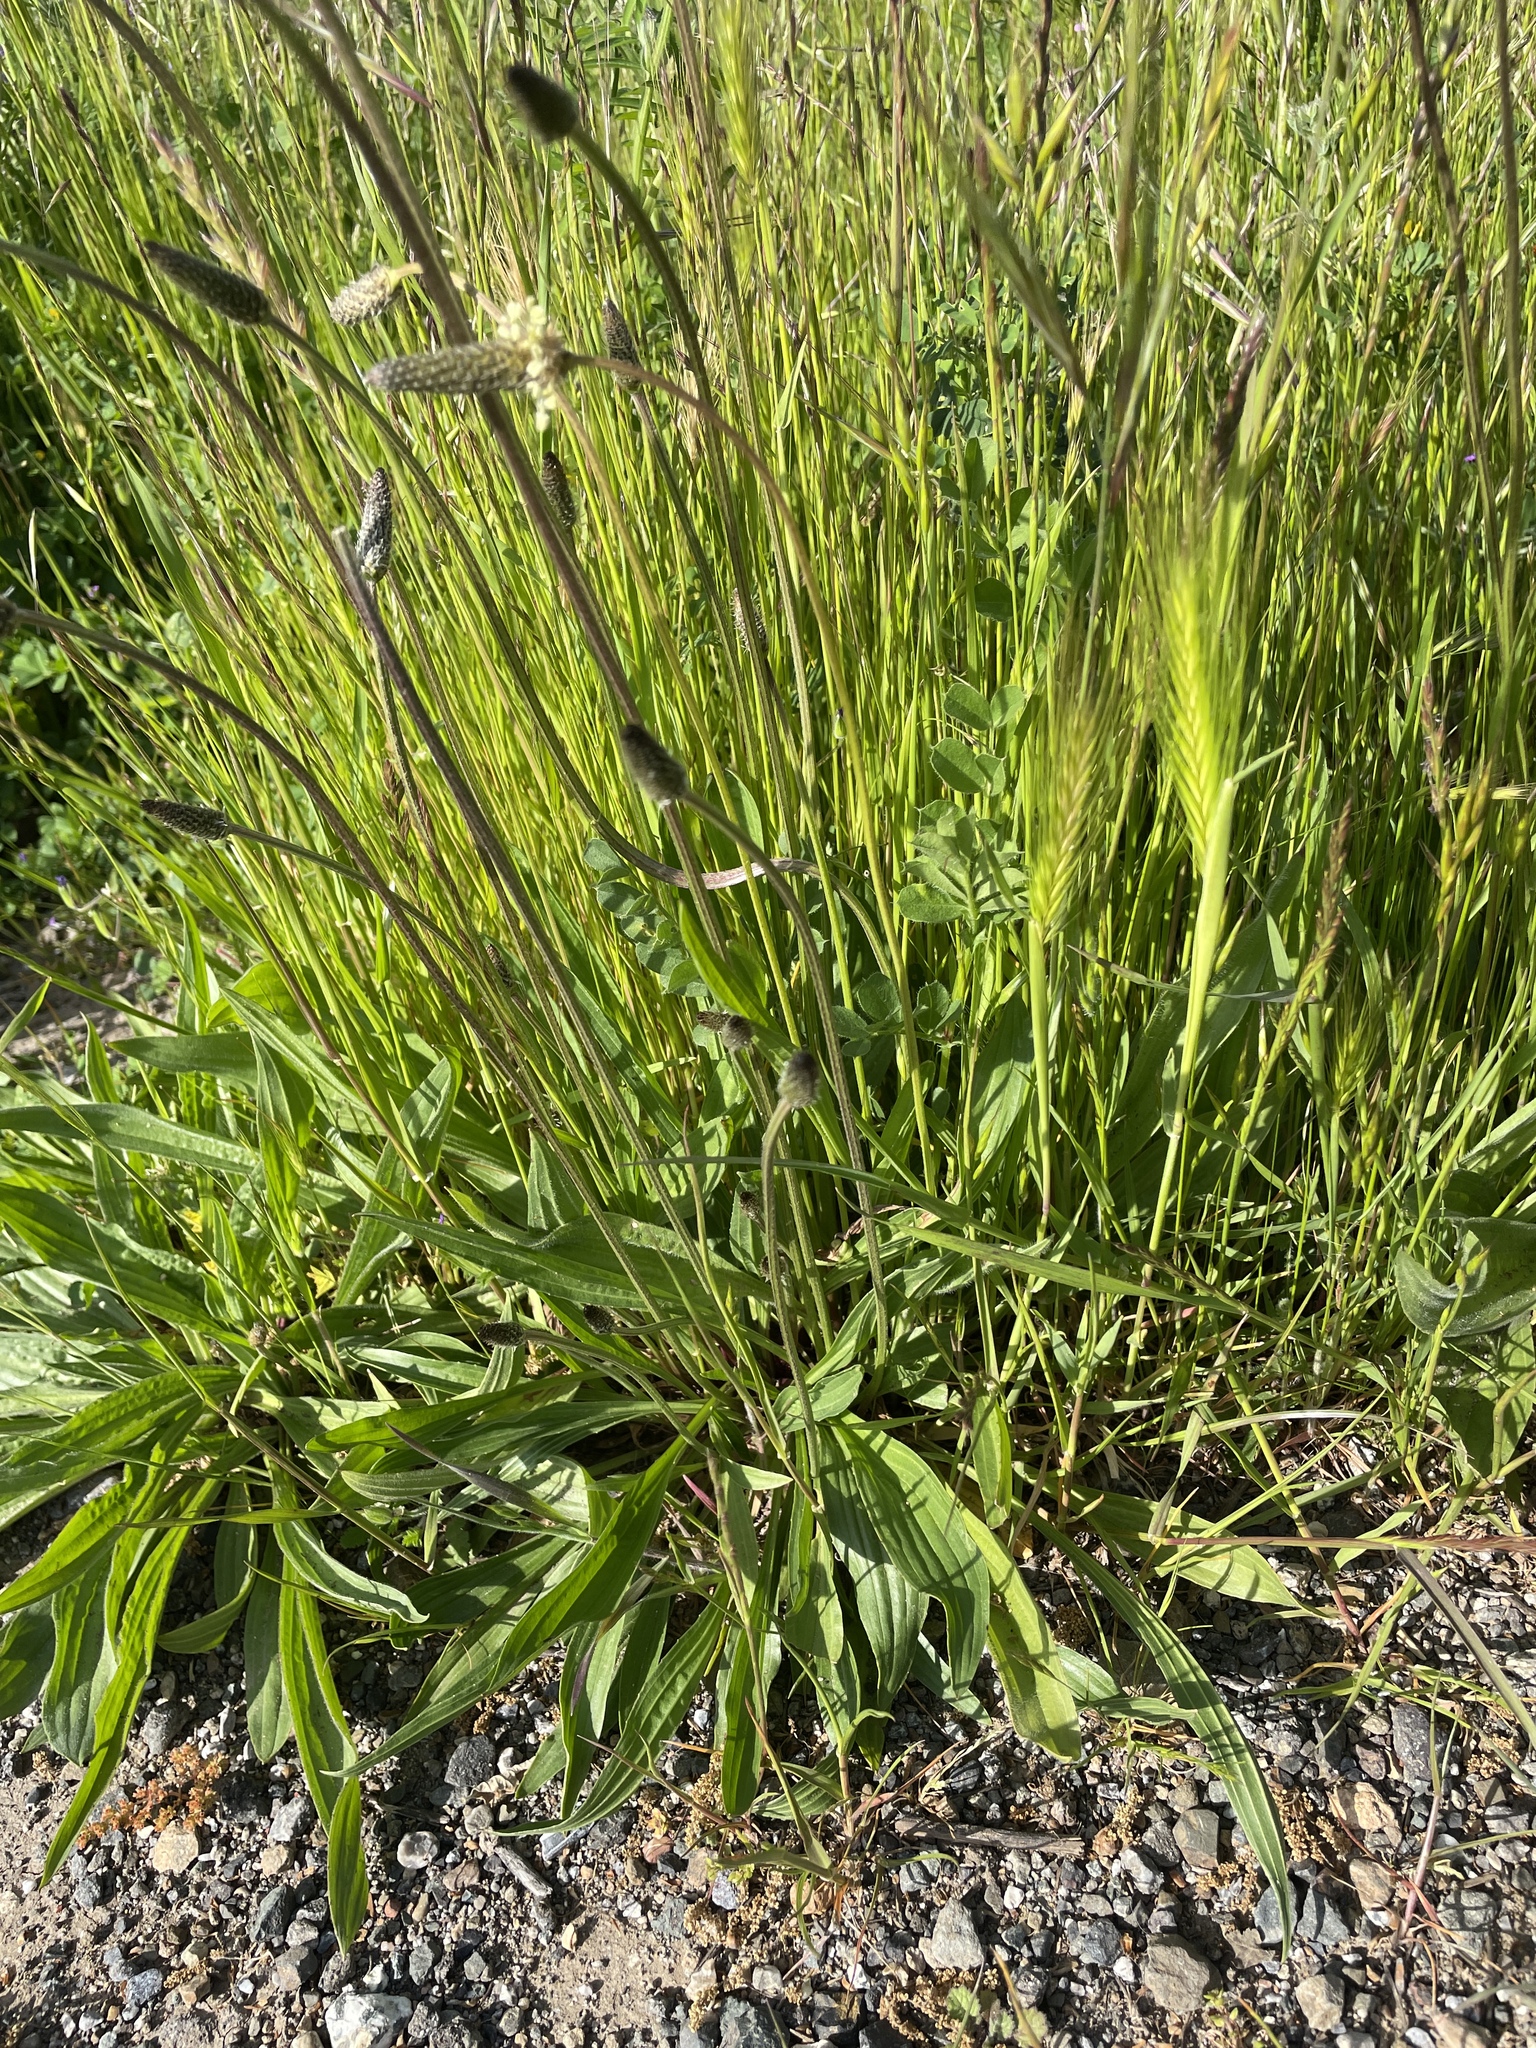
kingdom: Plantae
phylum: Tracheophyta
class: Magnoliopsida
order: Lamiales
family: Plantaginaceae
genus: Plantago
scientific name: Plantago lanceolata
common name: Ribwort plantain
